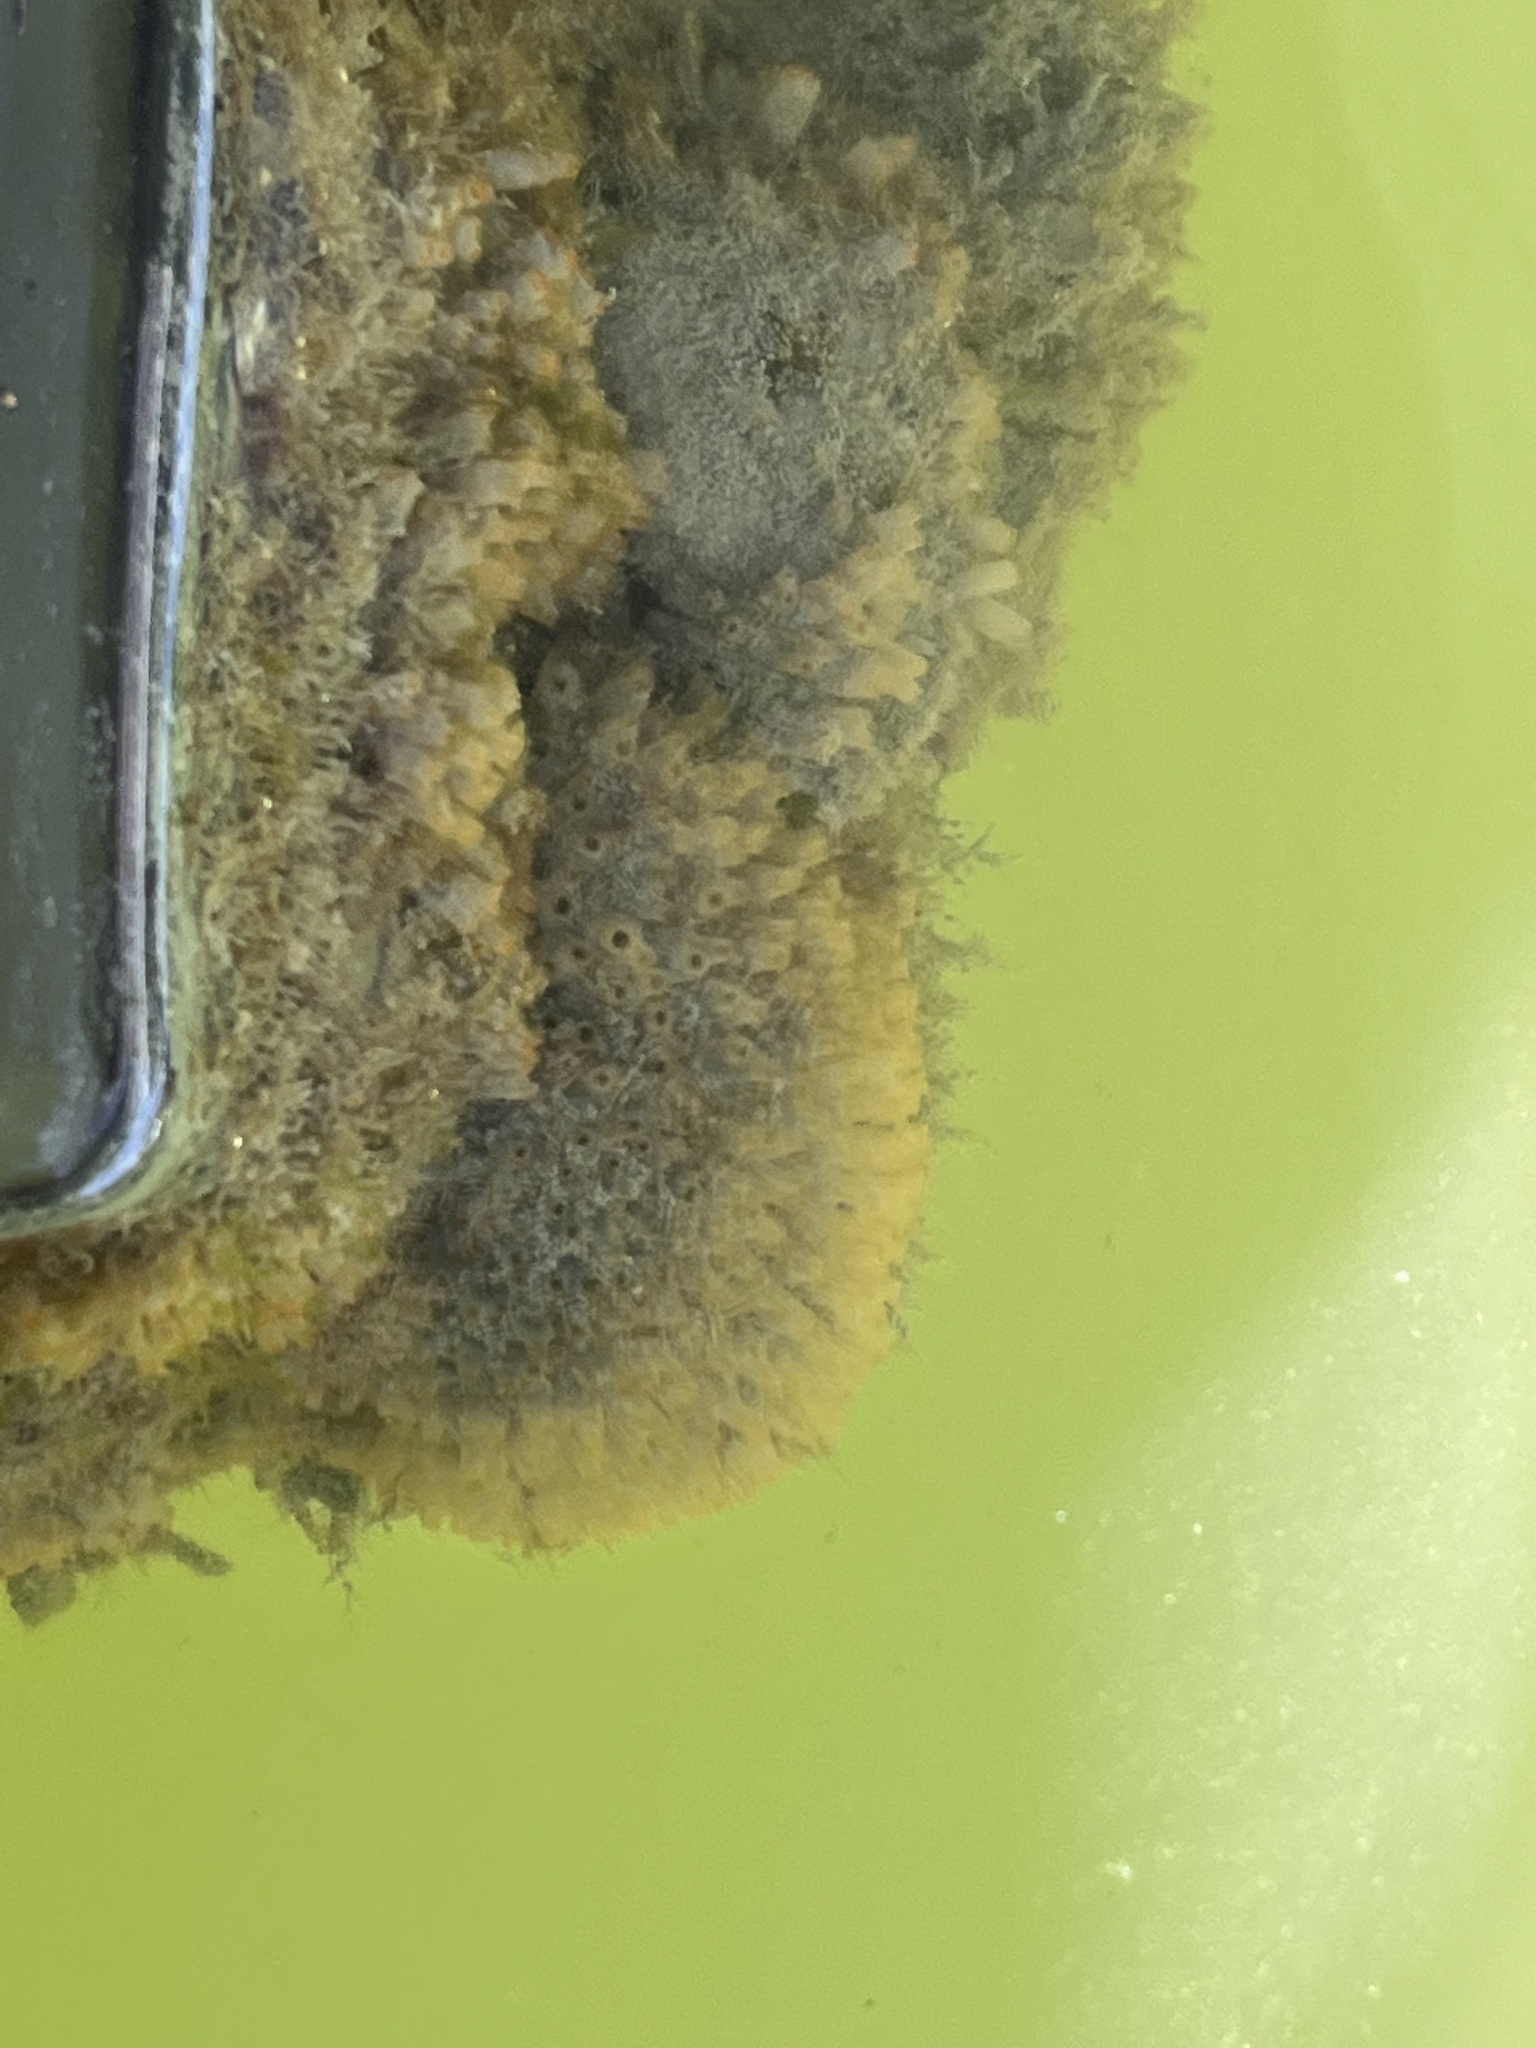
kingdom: Animalia
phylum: Chordata
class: Ascidiacea
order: Phlebobranchia
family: Perophoridae
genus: Ecteinascidia
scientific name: Ecteinascidia turbinata
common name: Mangrove tunicate
